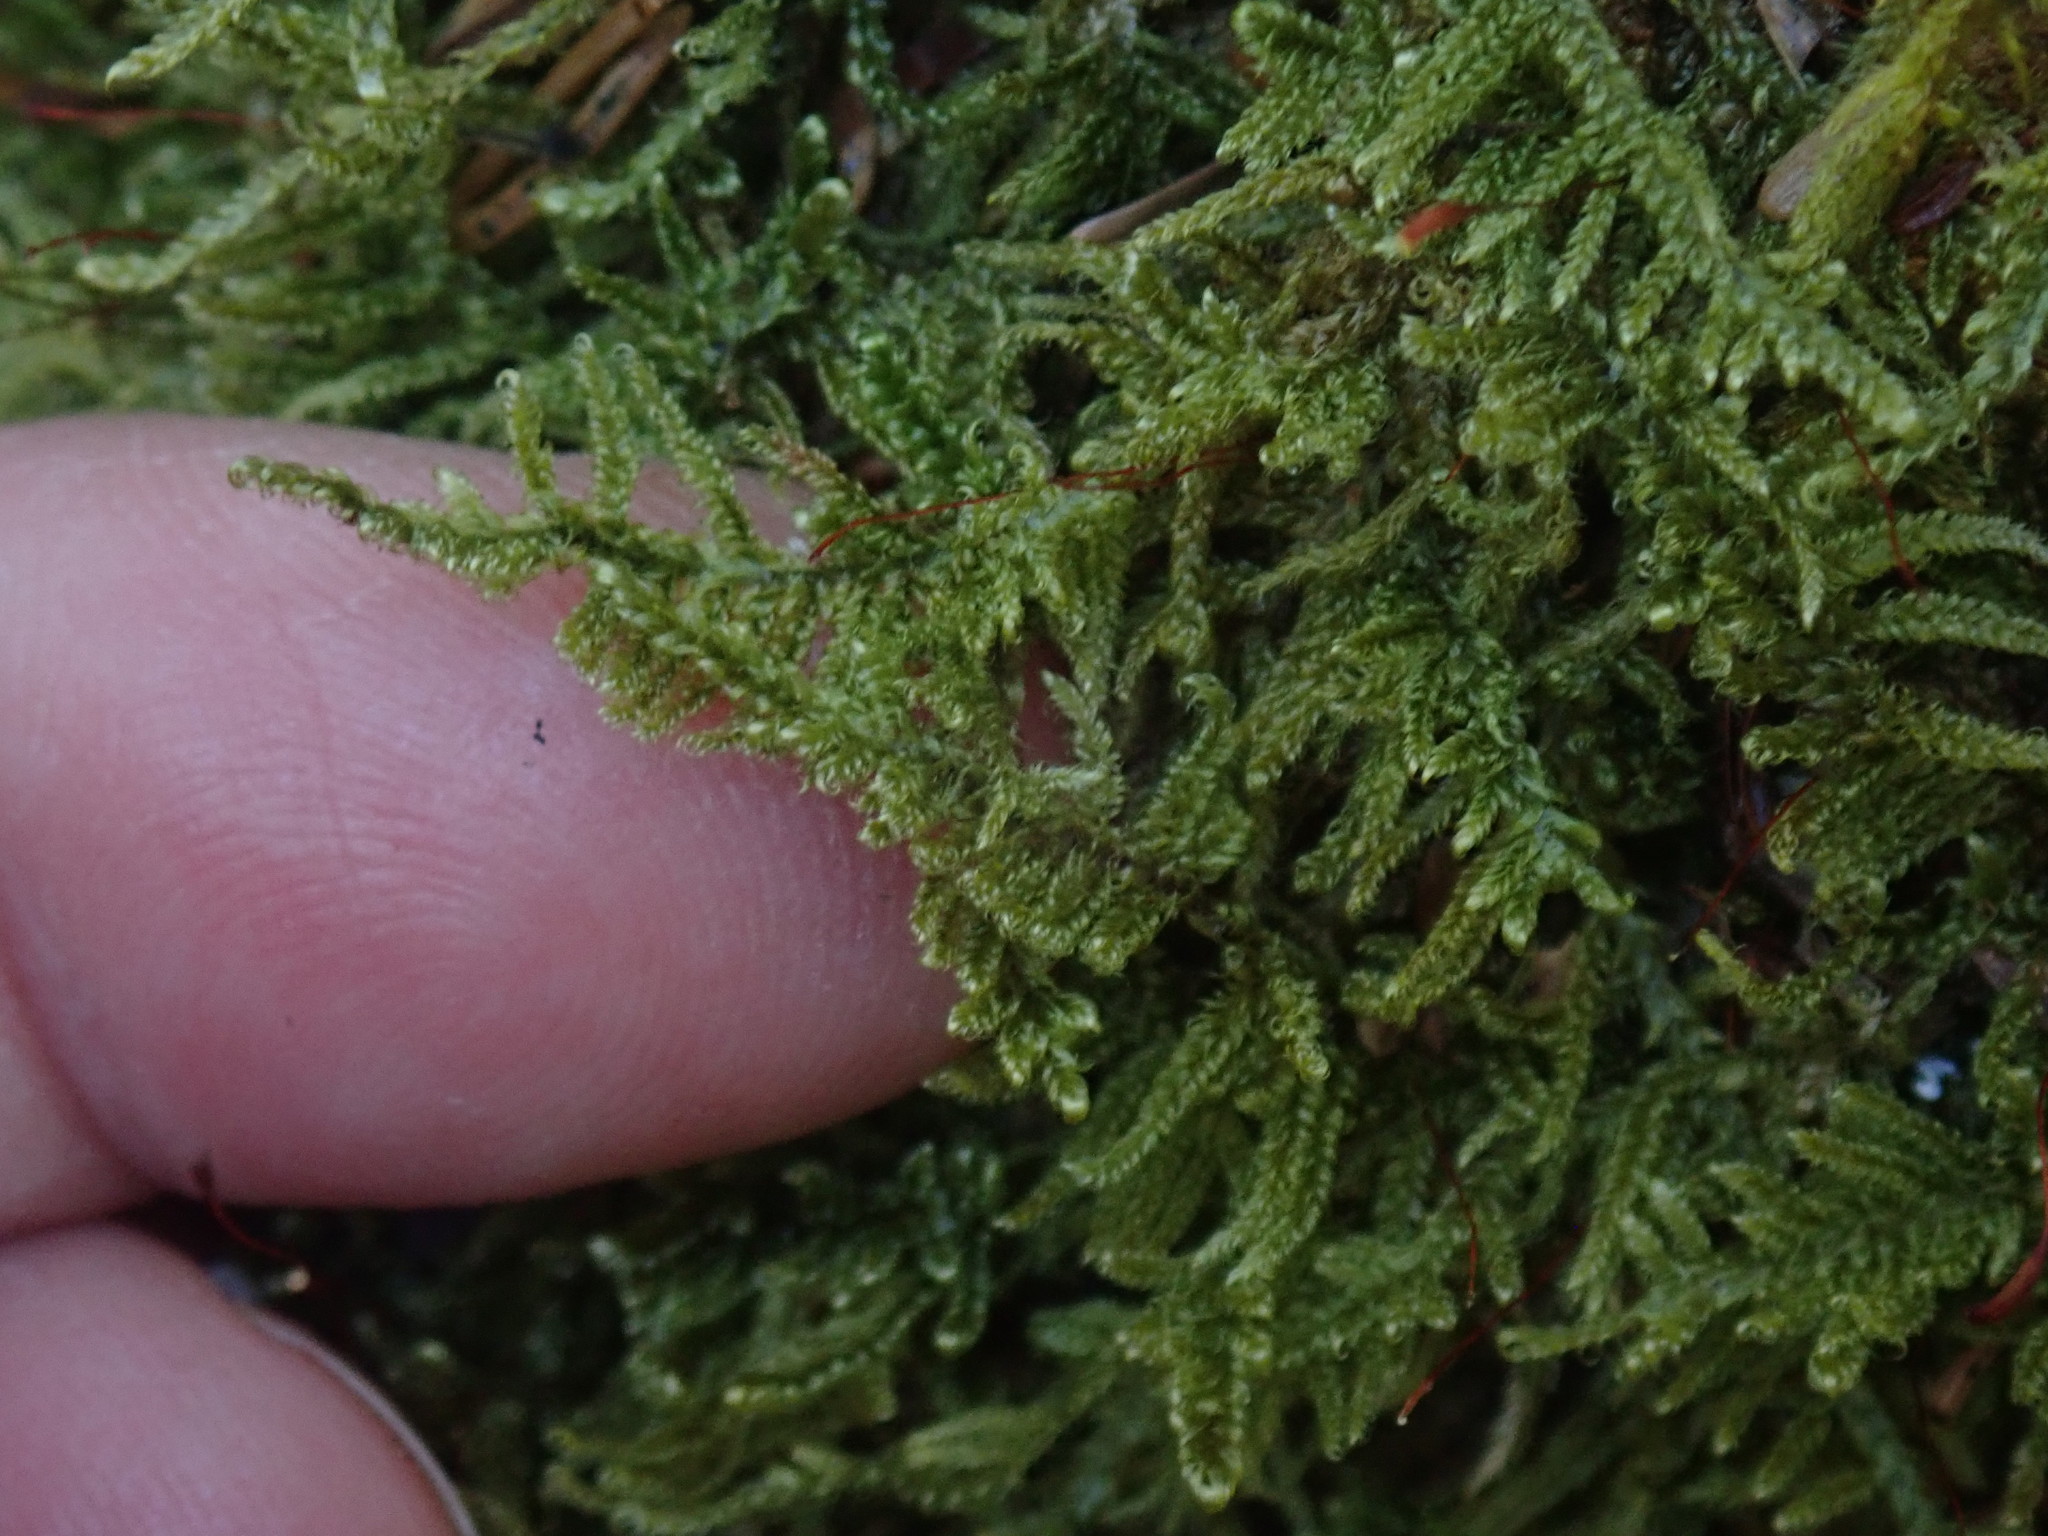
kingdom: Plantae
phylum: Bryophyta
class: Bryopsida
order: Hypnales
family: Callicladiaceae
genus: Callicladium
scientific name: Callicladium imponens
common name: Brocade moss
